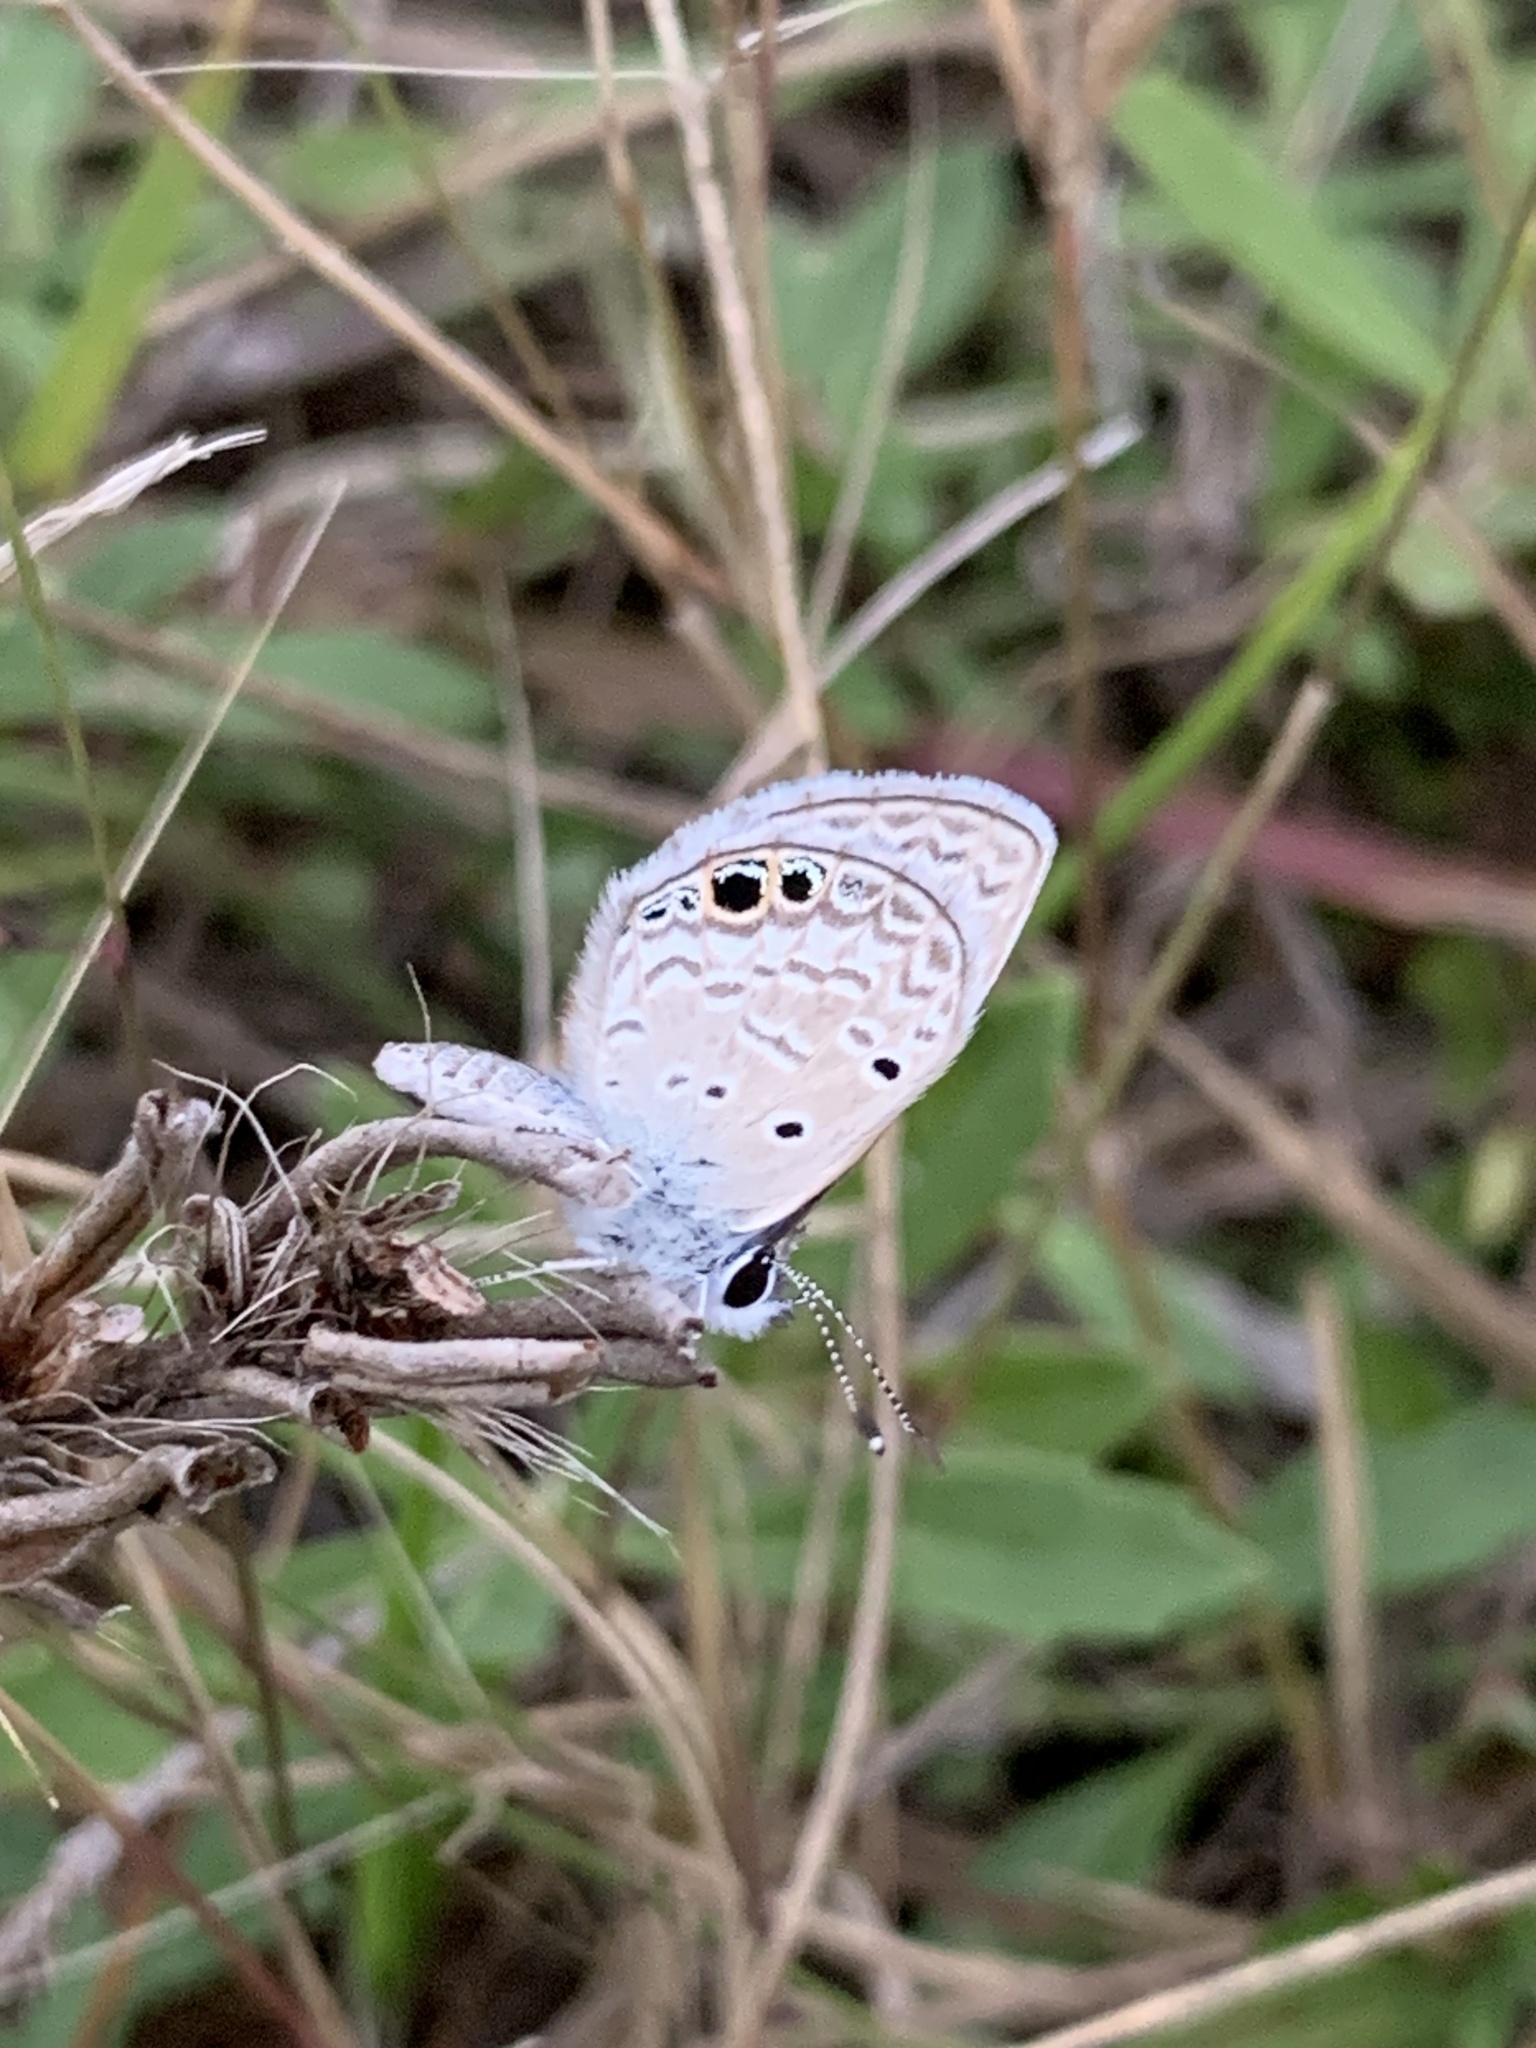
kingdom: Animalia
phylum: Arthropoda
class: Insecta
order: Lepidoptera
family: Lycaenidae
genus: Hemiargus
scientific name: Hemiargus ceraunus
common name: Ceraunus blue
